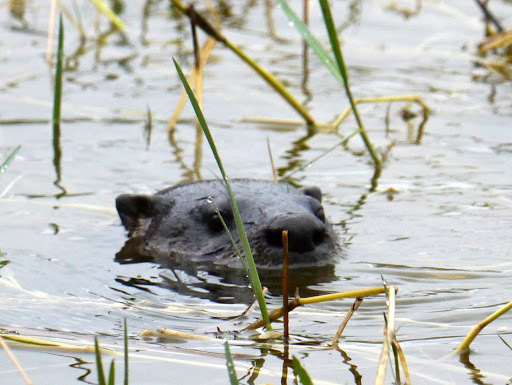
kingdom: Animalia
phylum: Chordata
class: Mammalia
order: Carnivora
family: Mustelidae
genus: Lontra
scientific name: Lontra canadensis
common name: North american river otter
